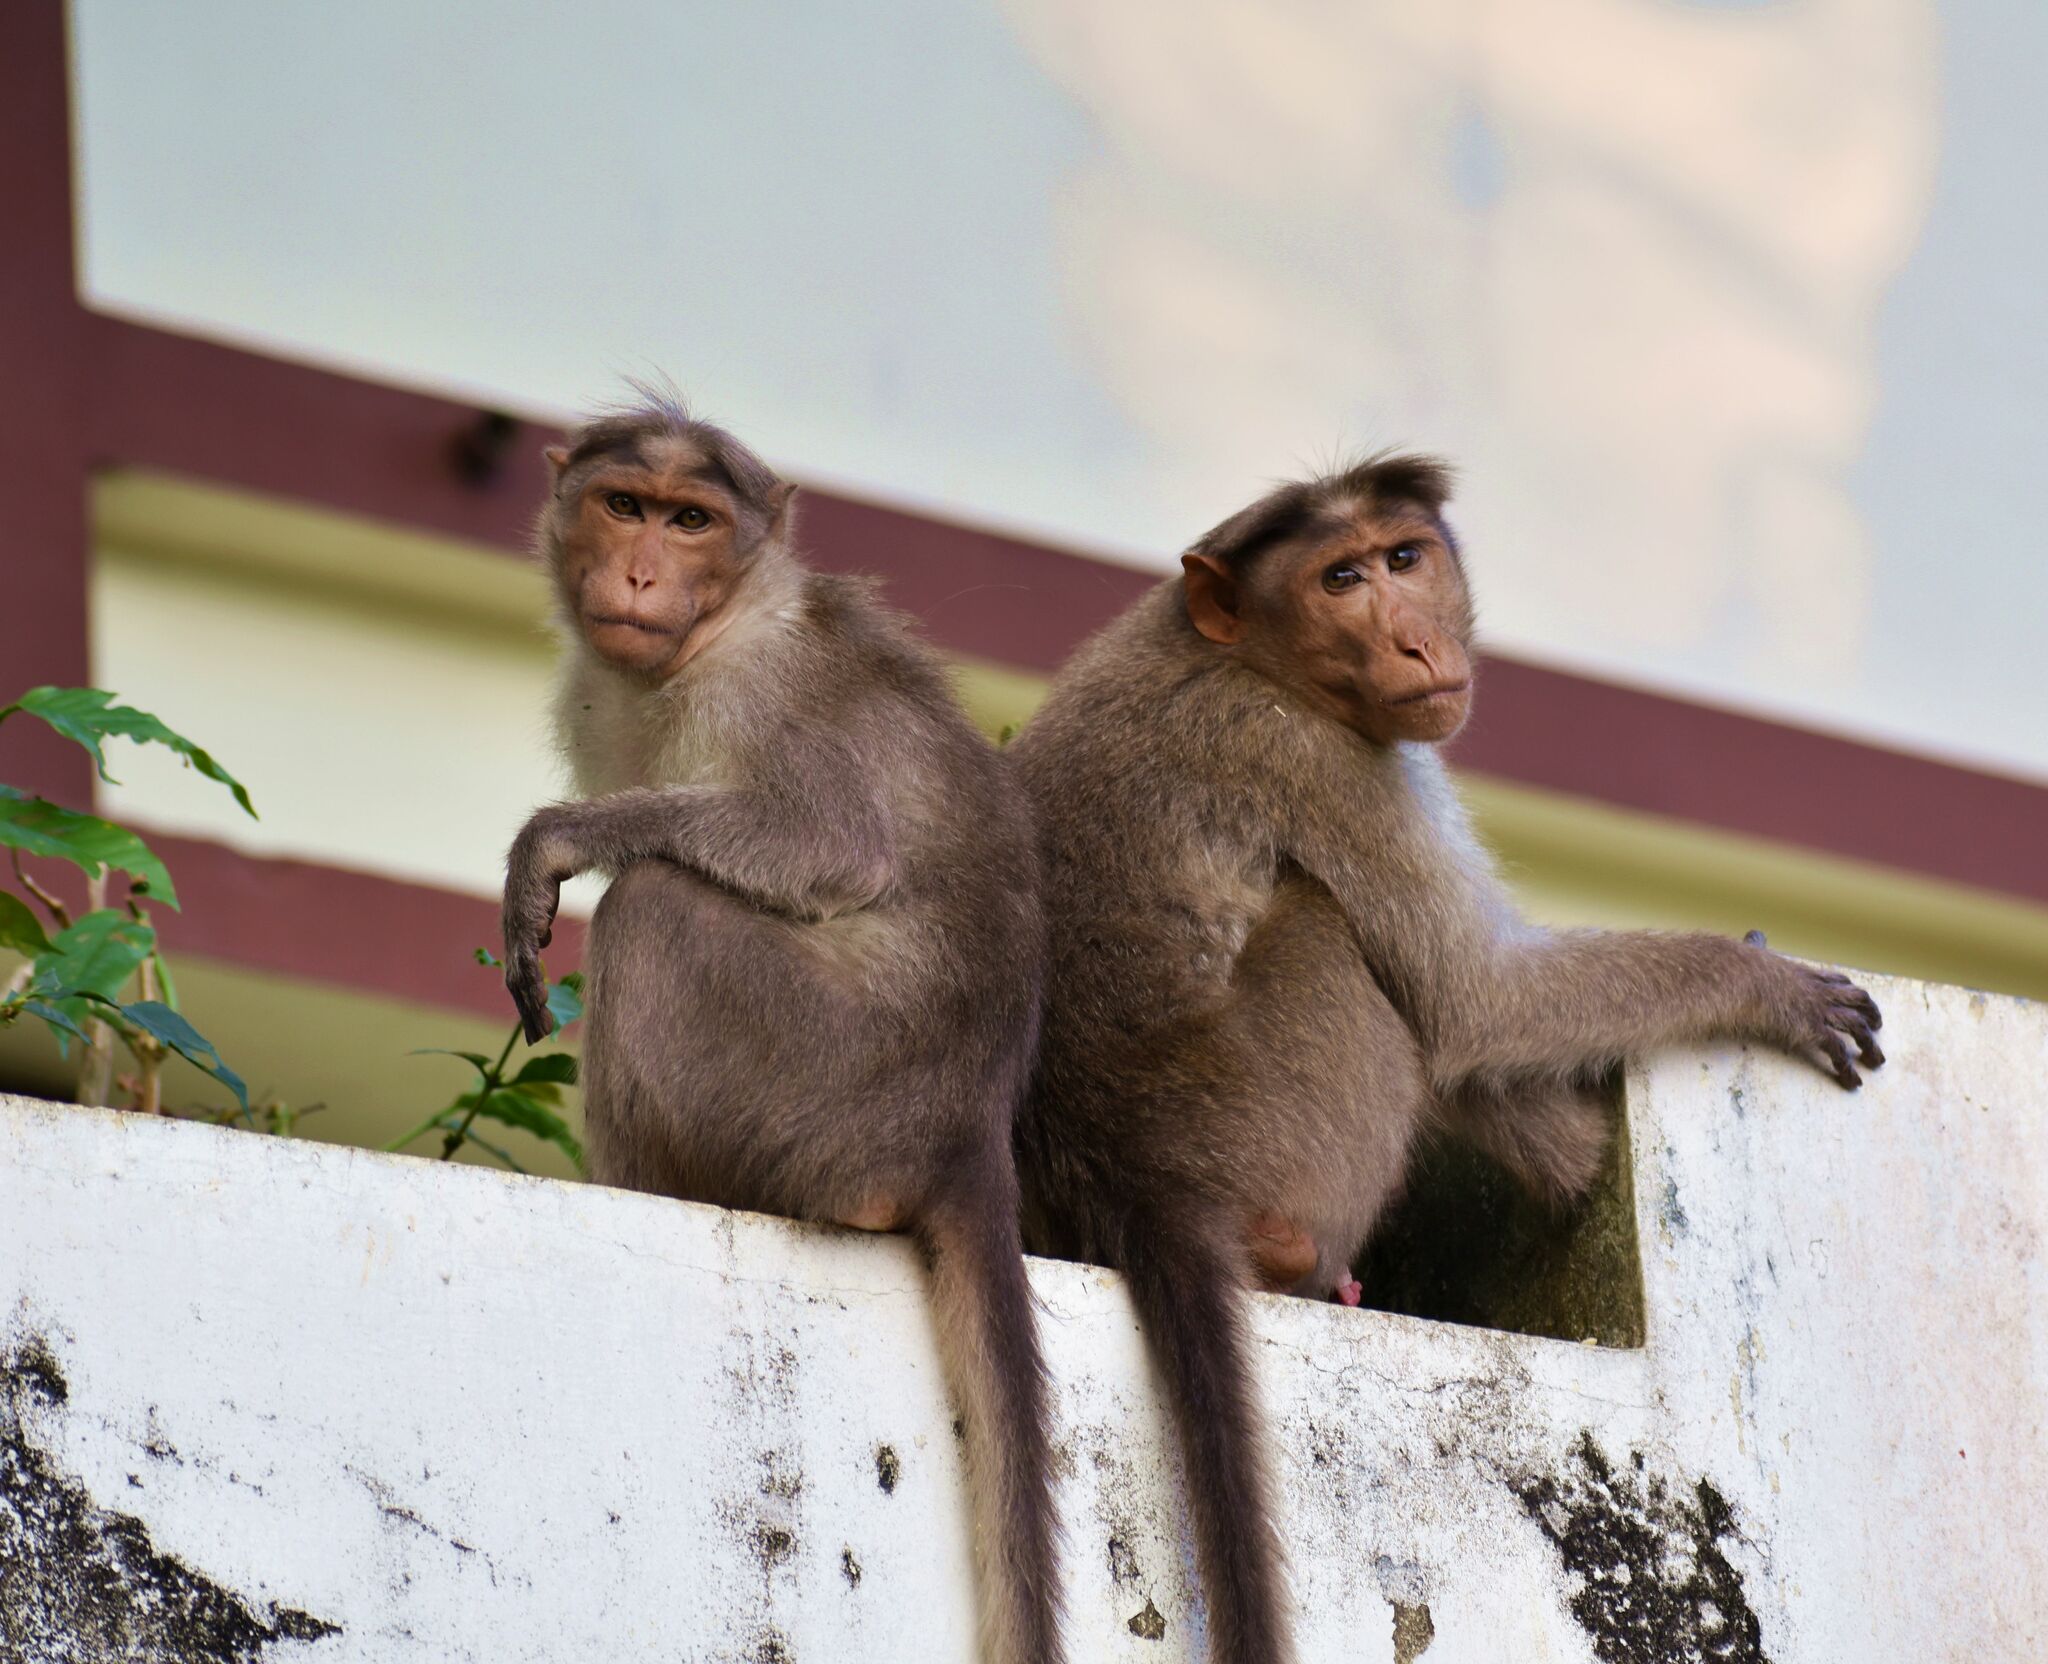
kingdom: Animalia
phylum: Chordata
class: Mammalia
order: Primates
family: Cercopithecidae
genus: Macaca
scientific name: Macaca radiata
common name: Bonnet macaque
